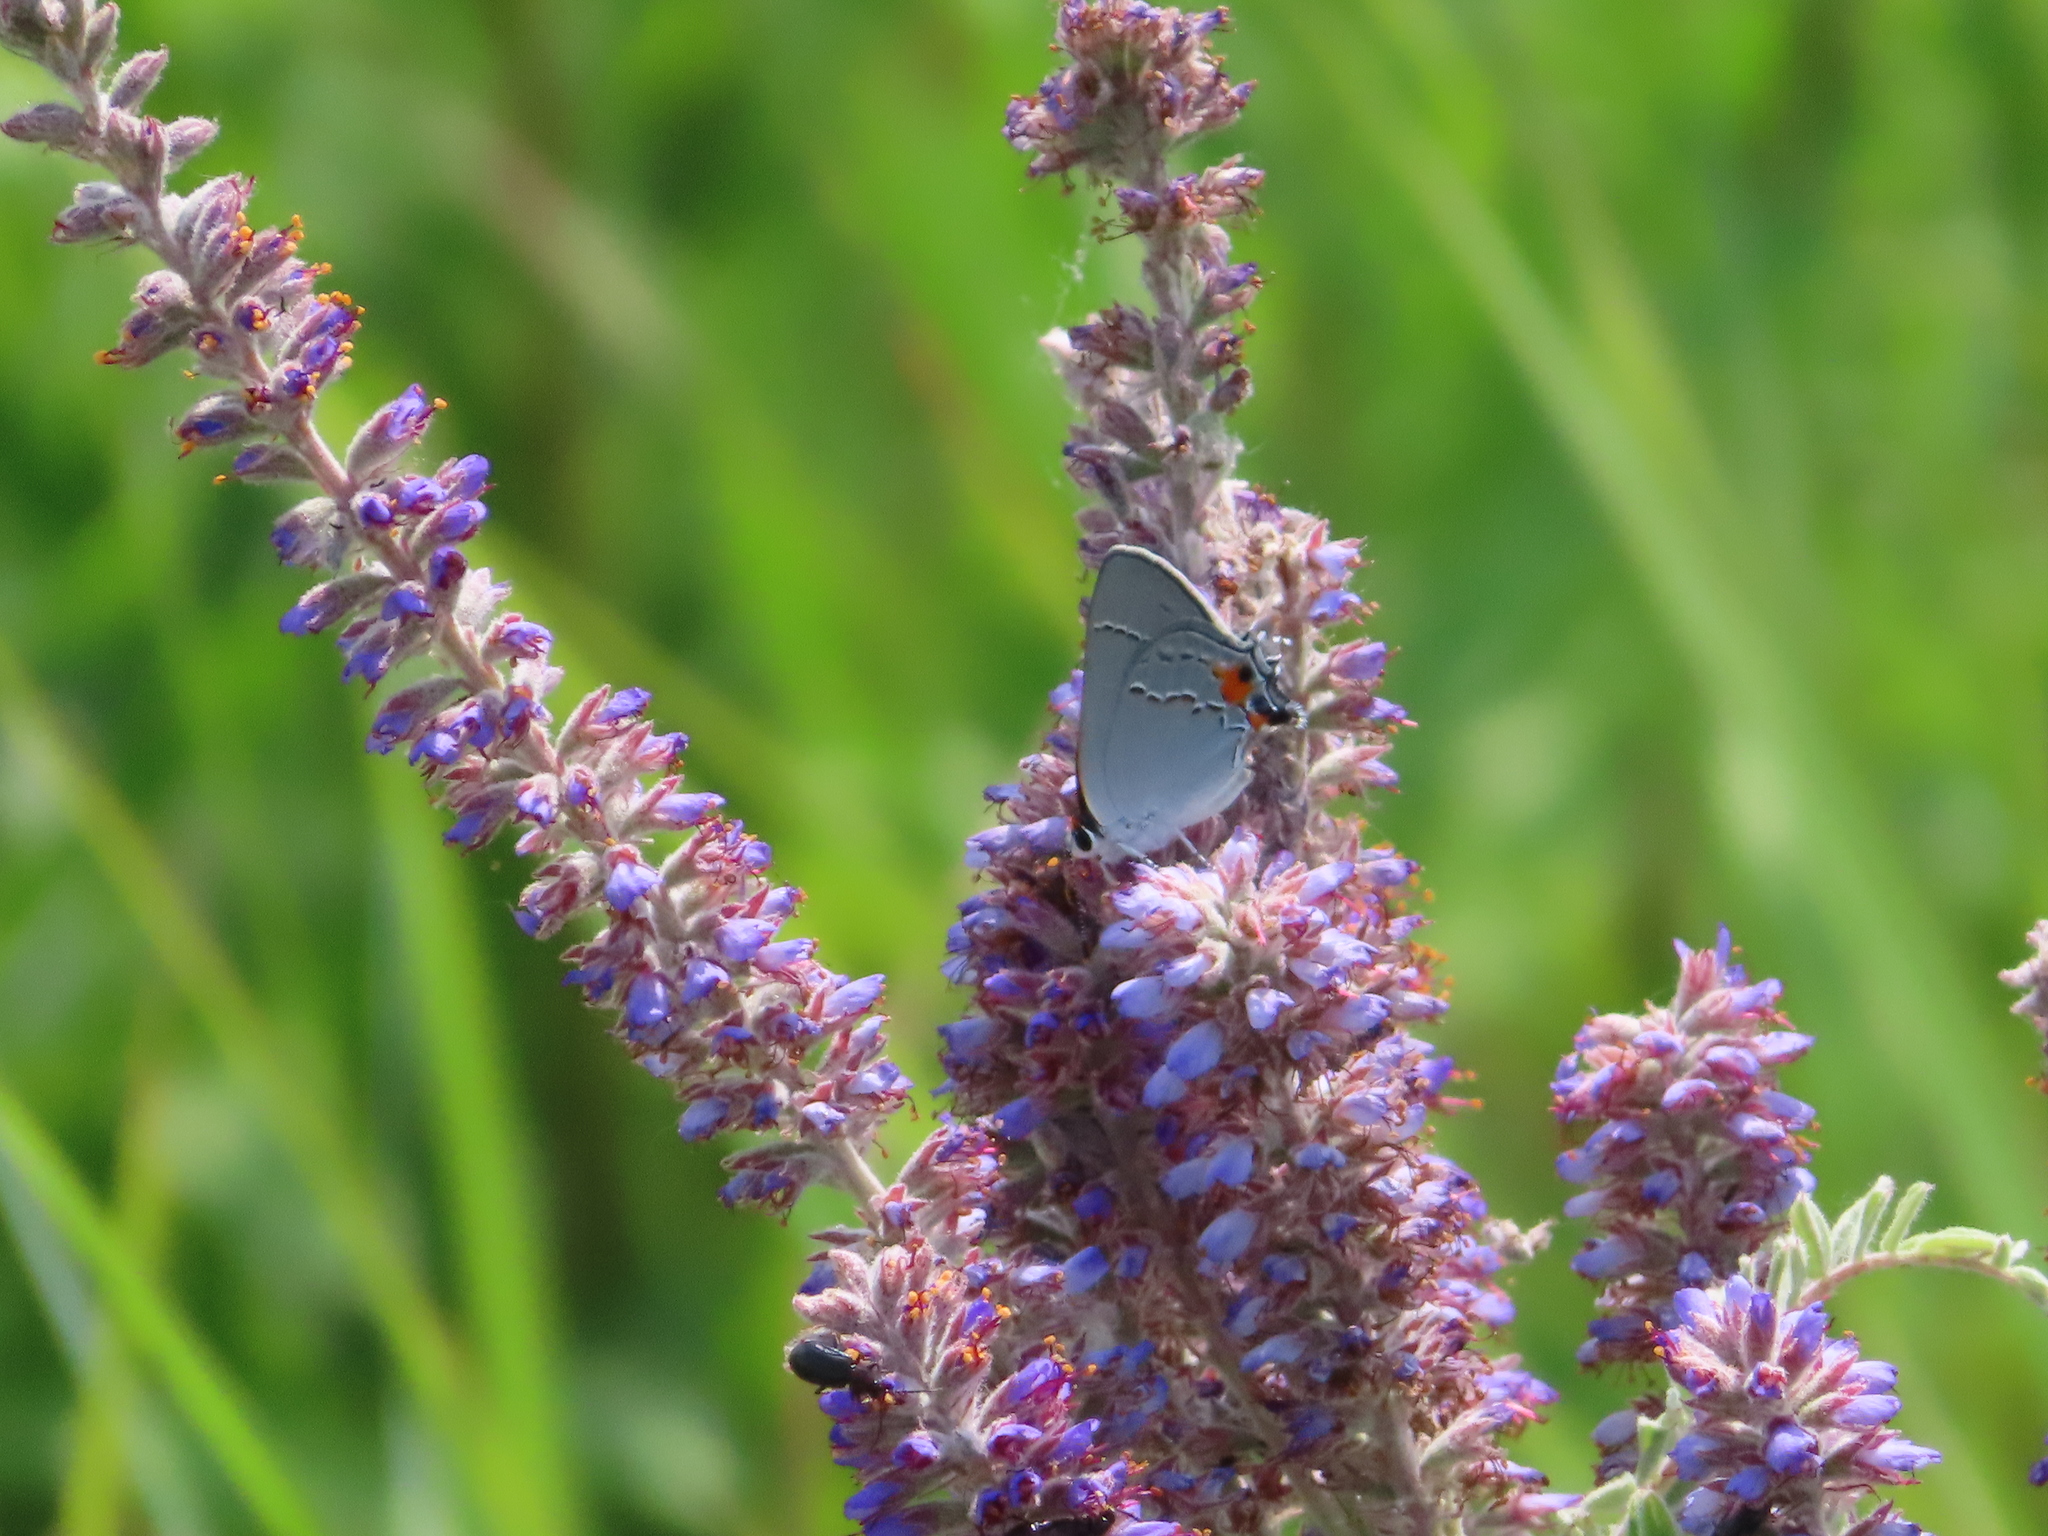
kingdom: Animalia
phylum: Arthropoda
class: Insecta
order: Lepidoptera
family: Lycaenidae
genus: Strymon
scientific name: Strymon melinus
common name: Gray hairstreak
